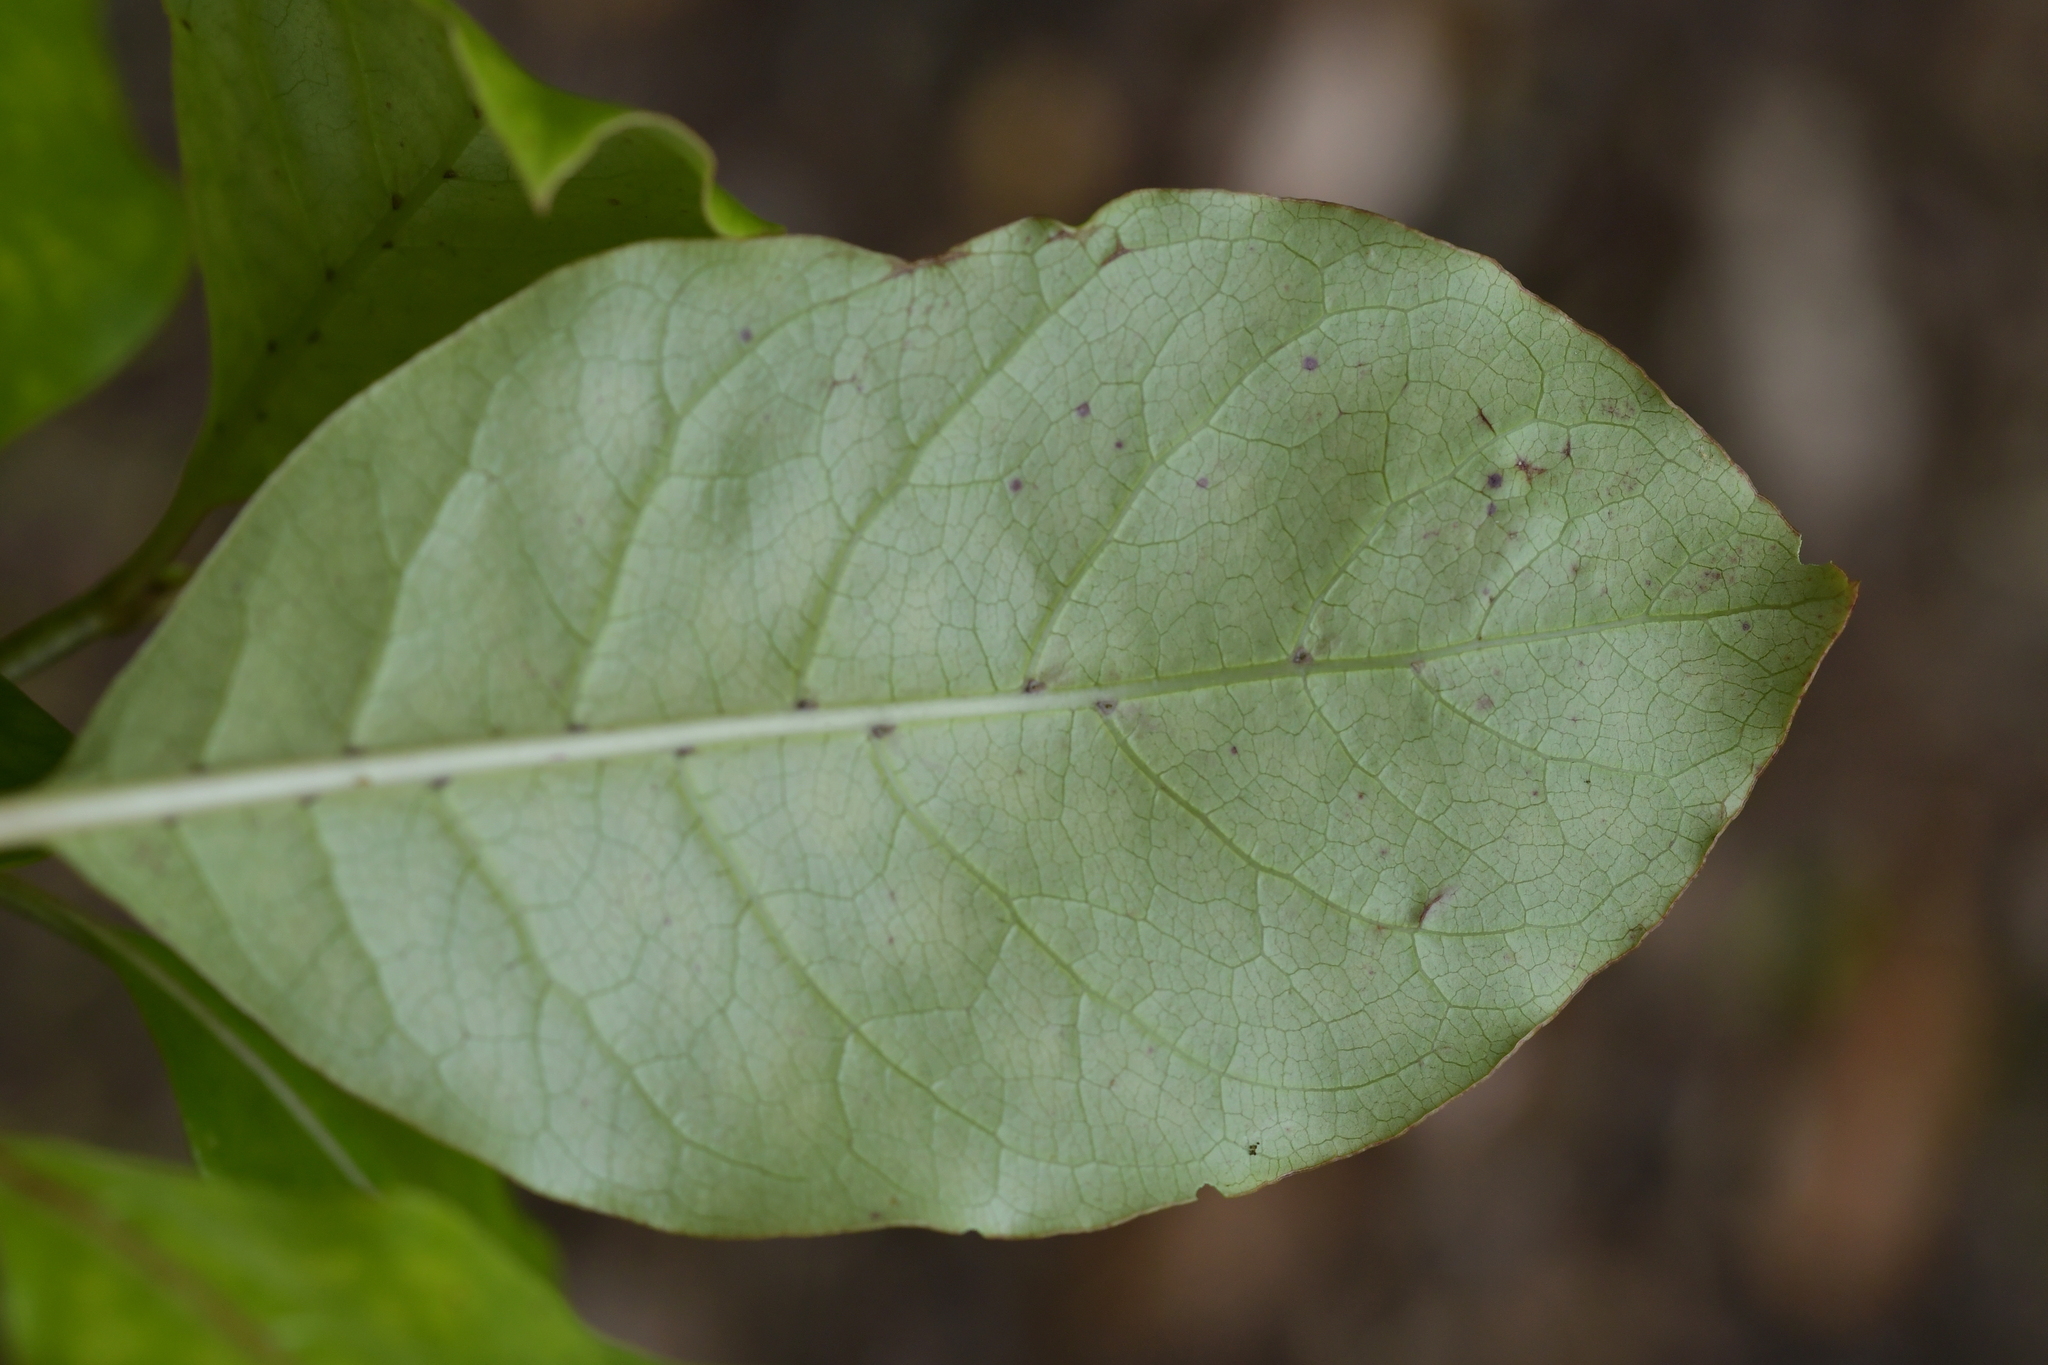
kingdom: Plantae
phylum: Tracheophyta
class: Magnoliopsida
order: Gentianales
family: Rubiaceae
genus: Coprosma
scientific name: Coprosma autumnalis
